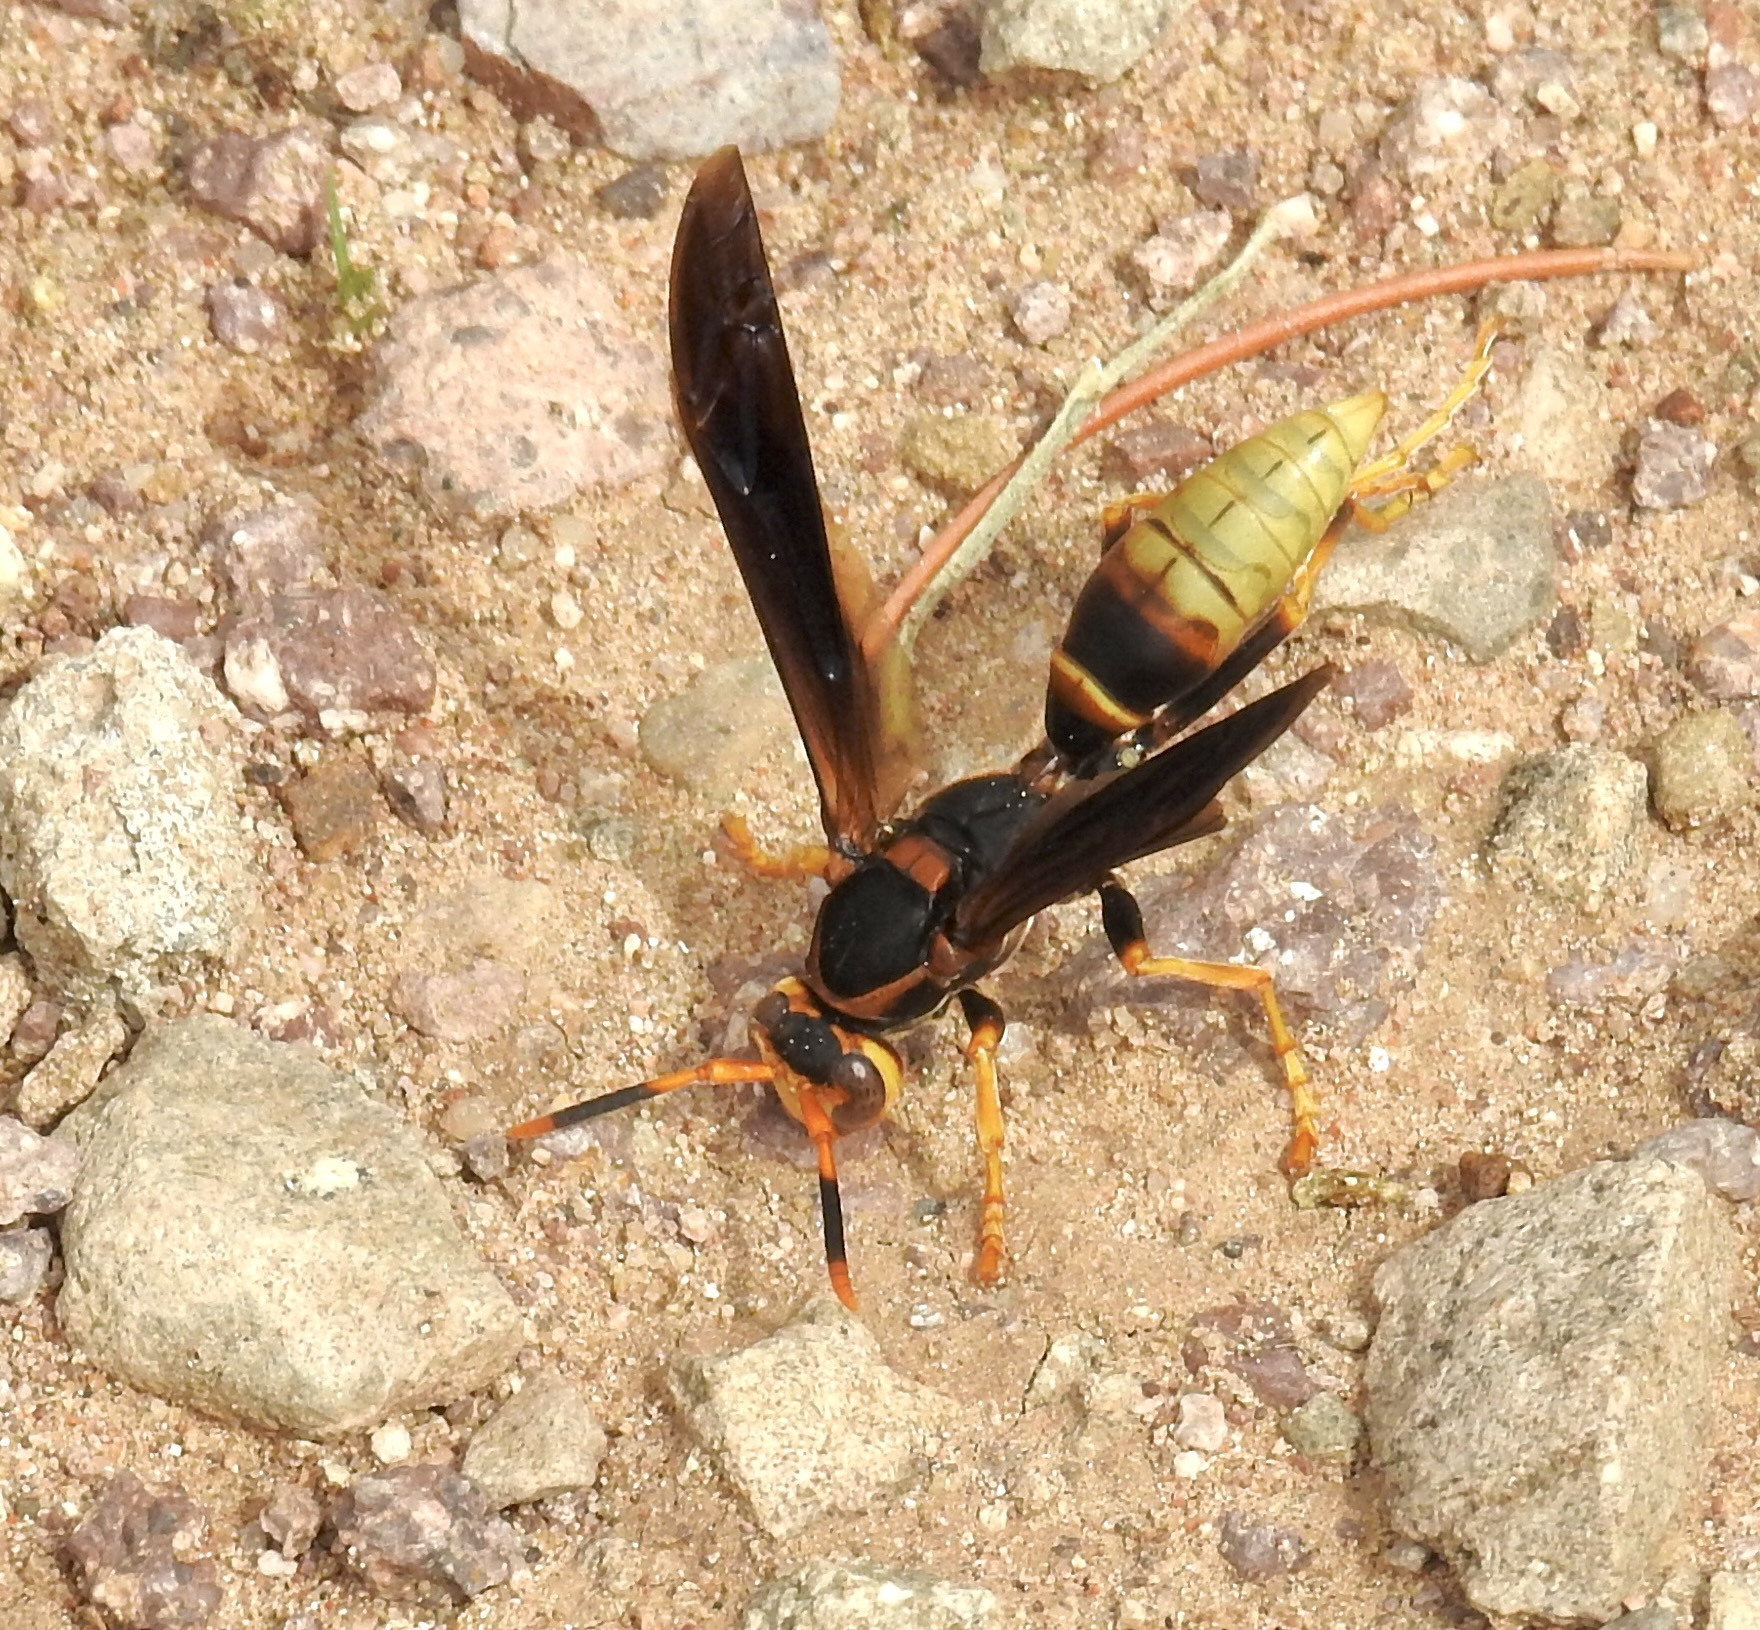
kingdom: Animalia
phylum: Arthropoda
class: Insecta
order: Hymenoptera
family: Eumenidae
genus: Polistes
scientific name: Polistes comanchus
